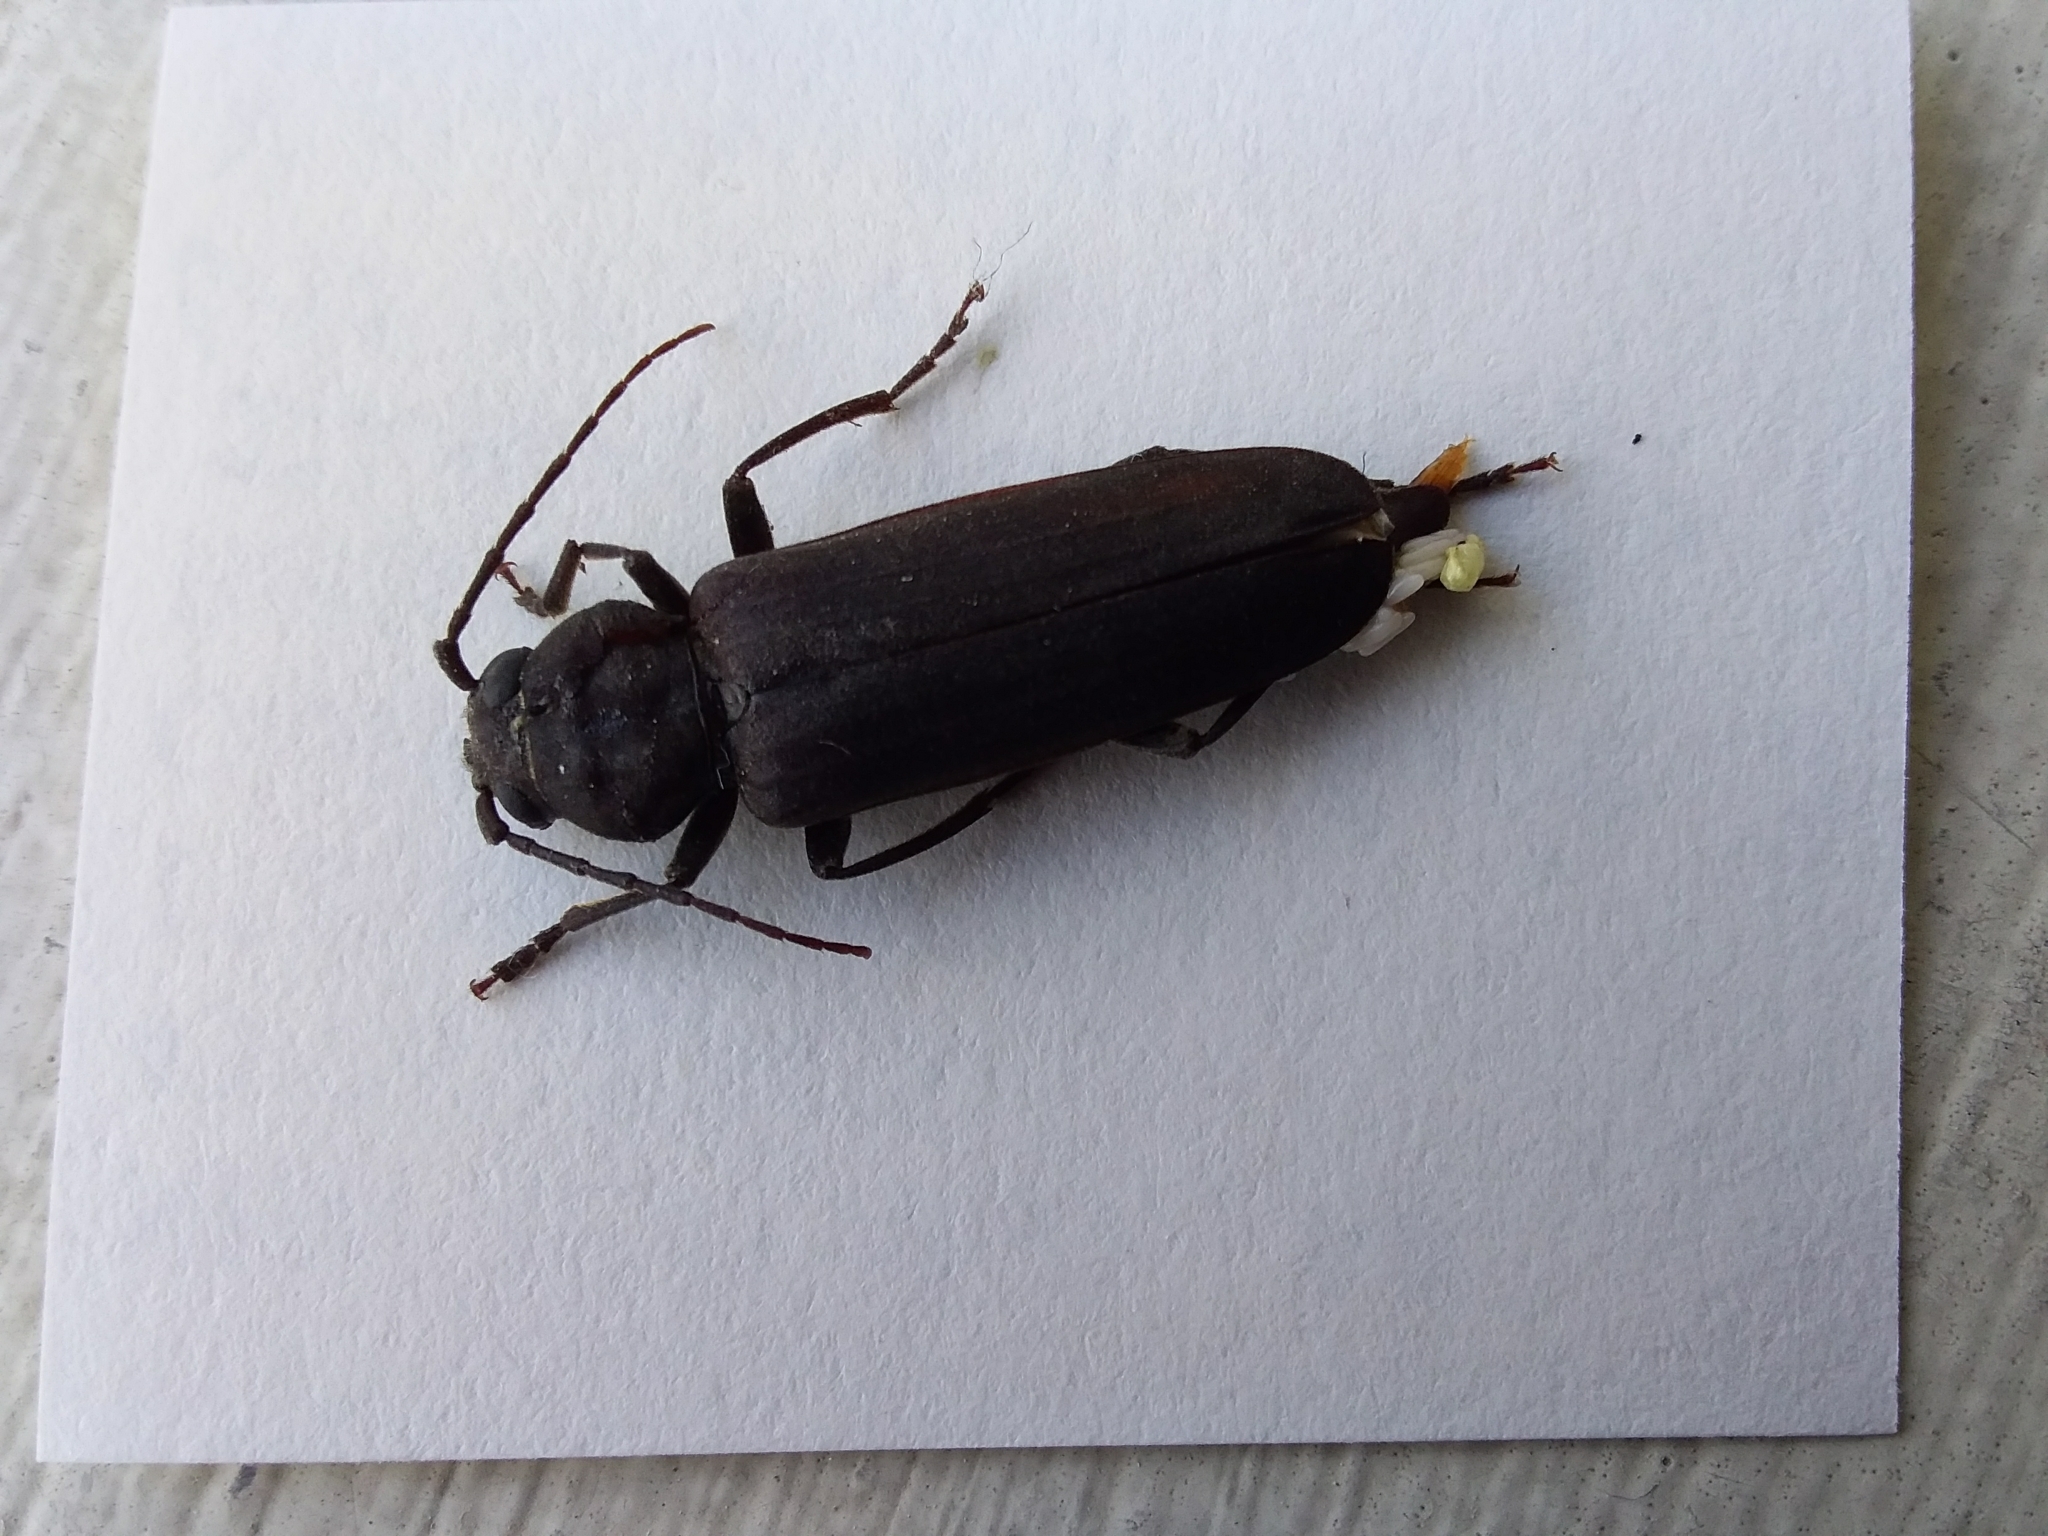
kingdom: Animalia
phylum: Arthropoda
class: Insecta
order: Coleoptera
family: Cerambycidae
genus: Arhopalus
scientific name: Arhopalus ferus
